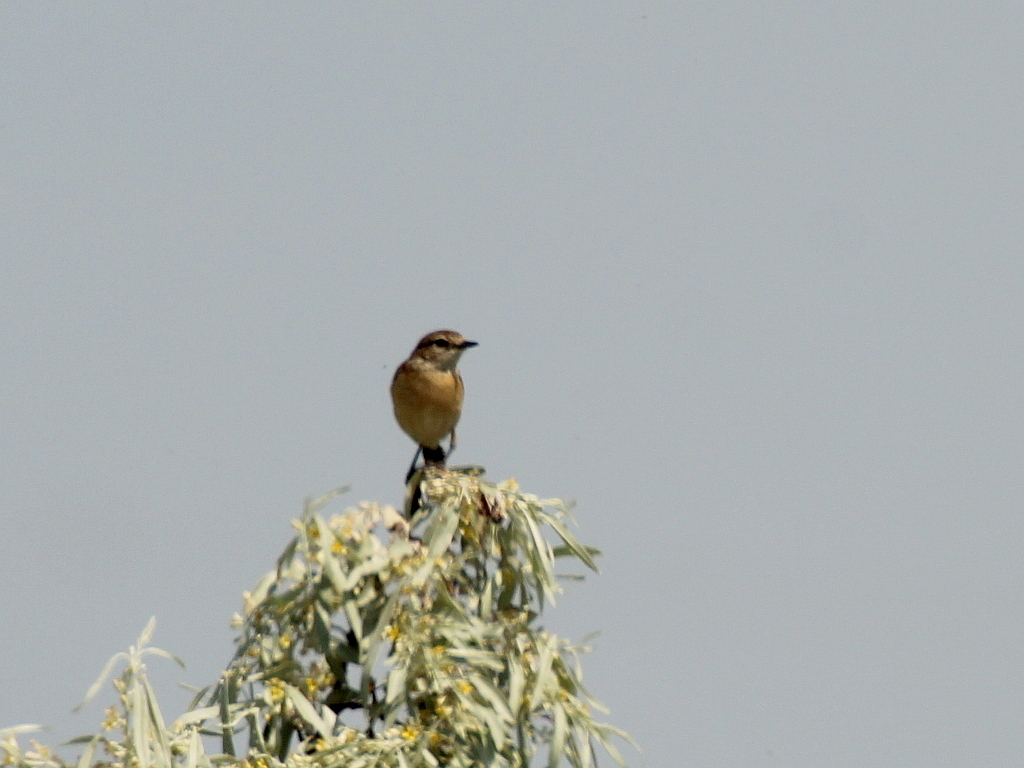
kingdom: Animalia
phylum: Chordata
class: Aves
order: Passeriformes
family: Muscicapidae
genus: Saxicola
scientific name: Saxicola maurus
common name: Siberian stonechat
